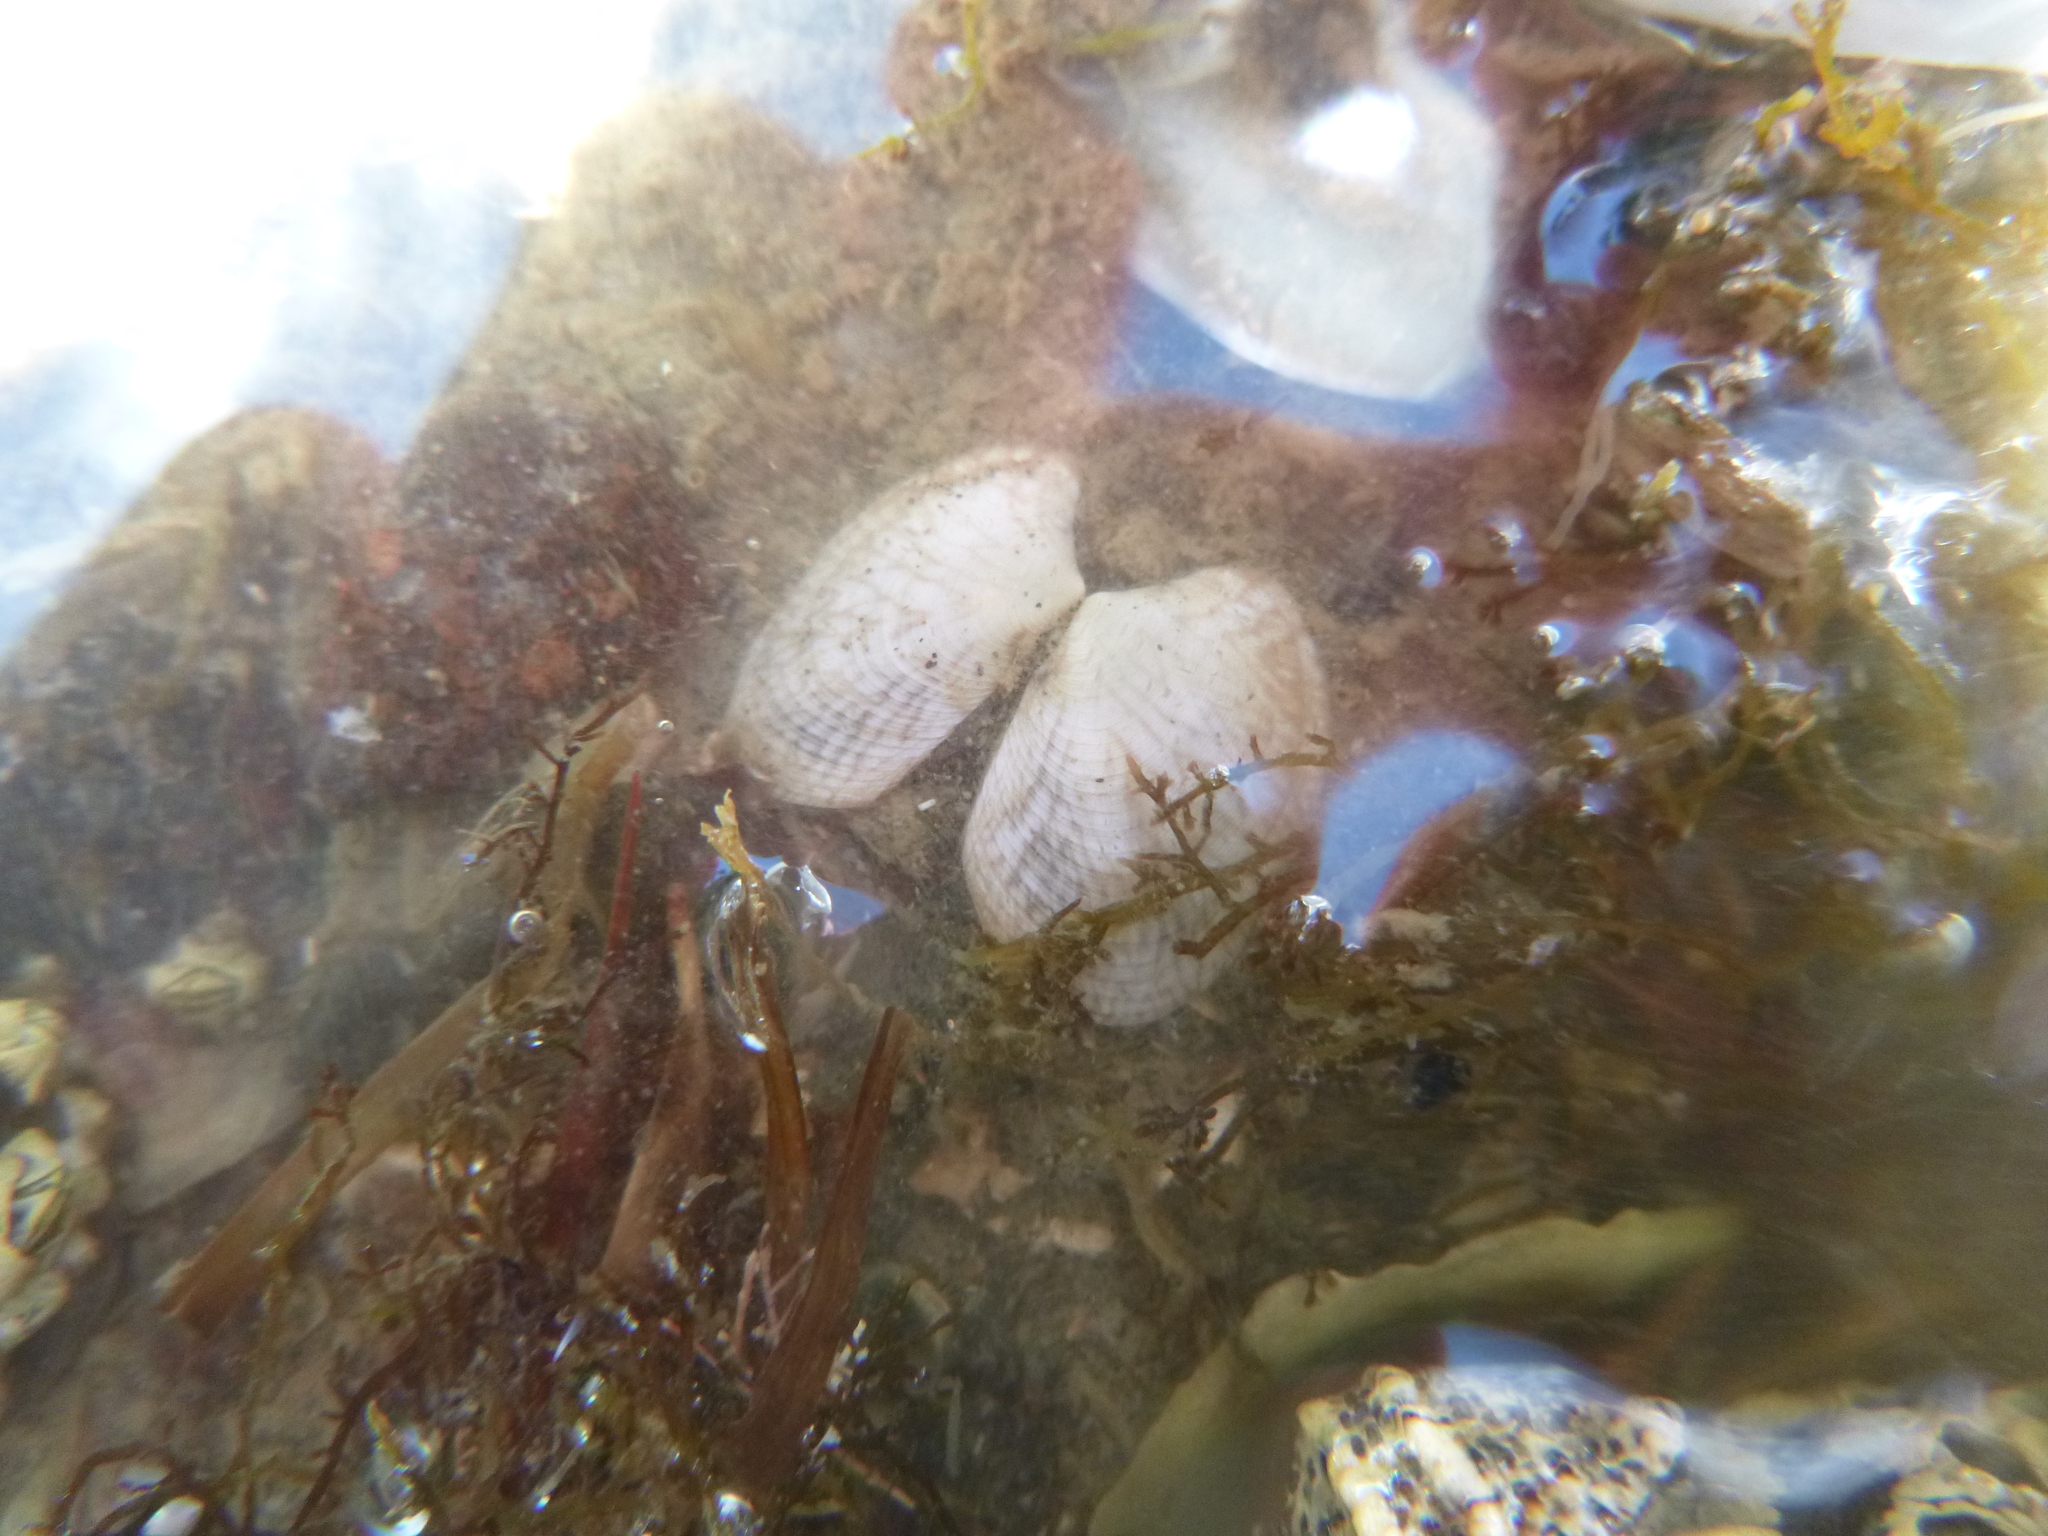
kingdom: Animalia
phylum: Mollusca
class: Bivalvia
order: Venerida
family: Veneridae
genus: Venerupis
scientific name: Venerupis largillierti
